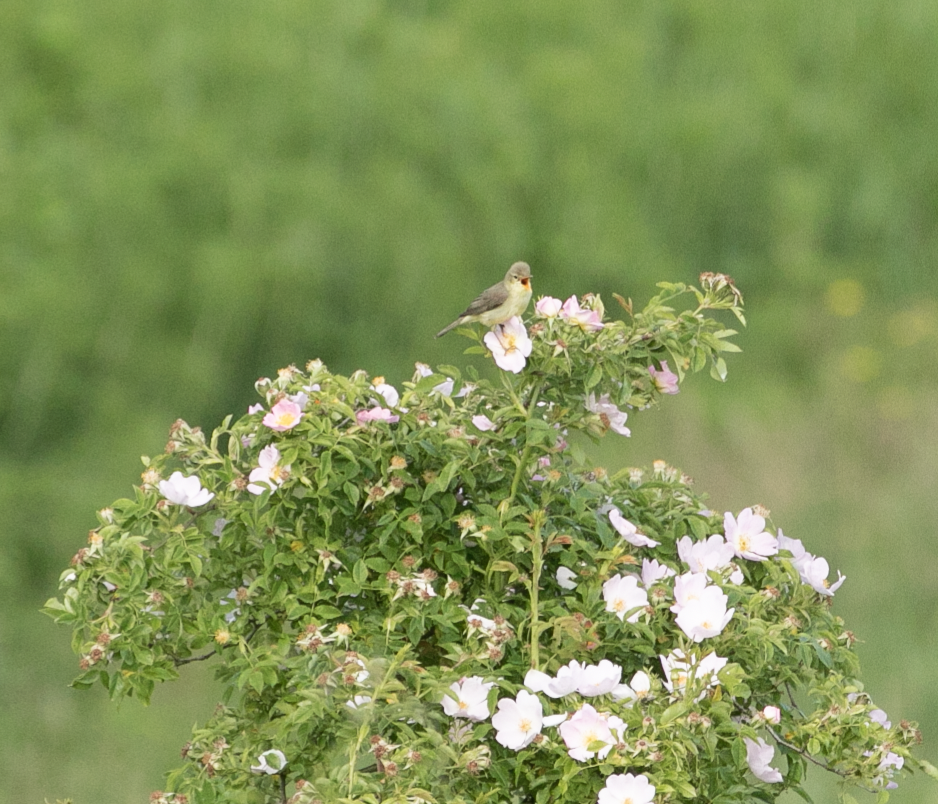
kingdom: Animalia
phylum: Chordata
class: Aves
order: Passeriformes
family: Acrocephalidae
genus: Hippolais
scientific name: Hippolais polyglotta
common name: Melodious warbler
